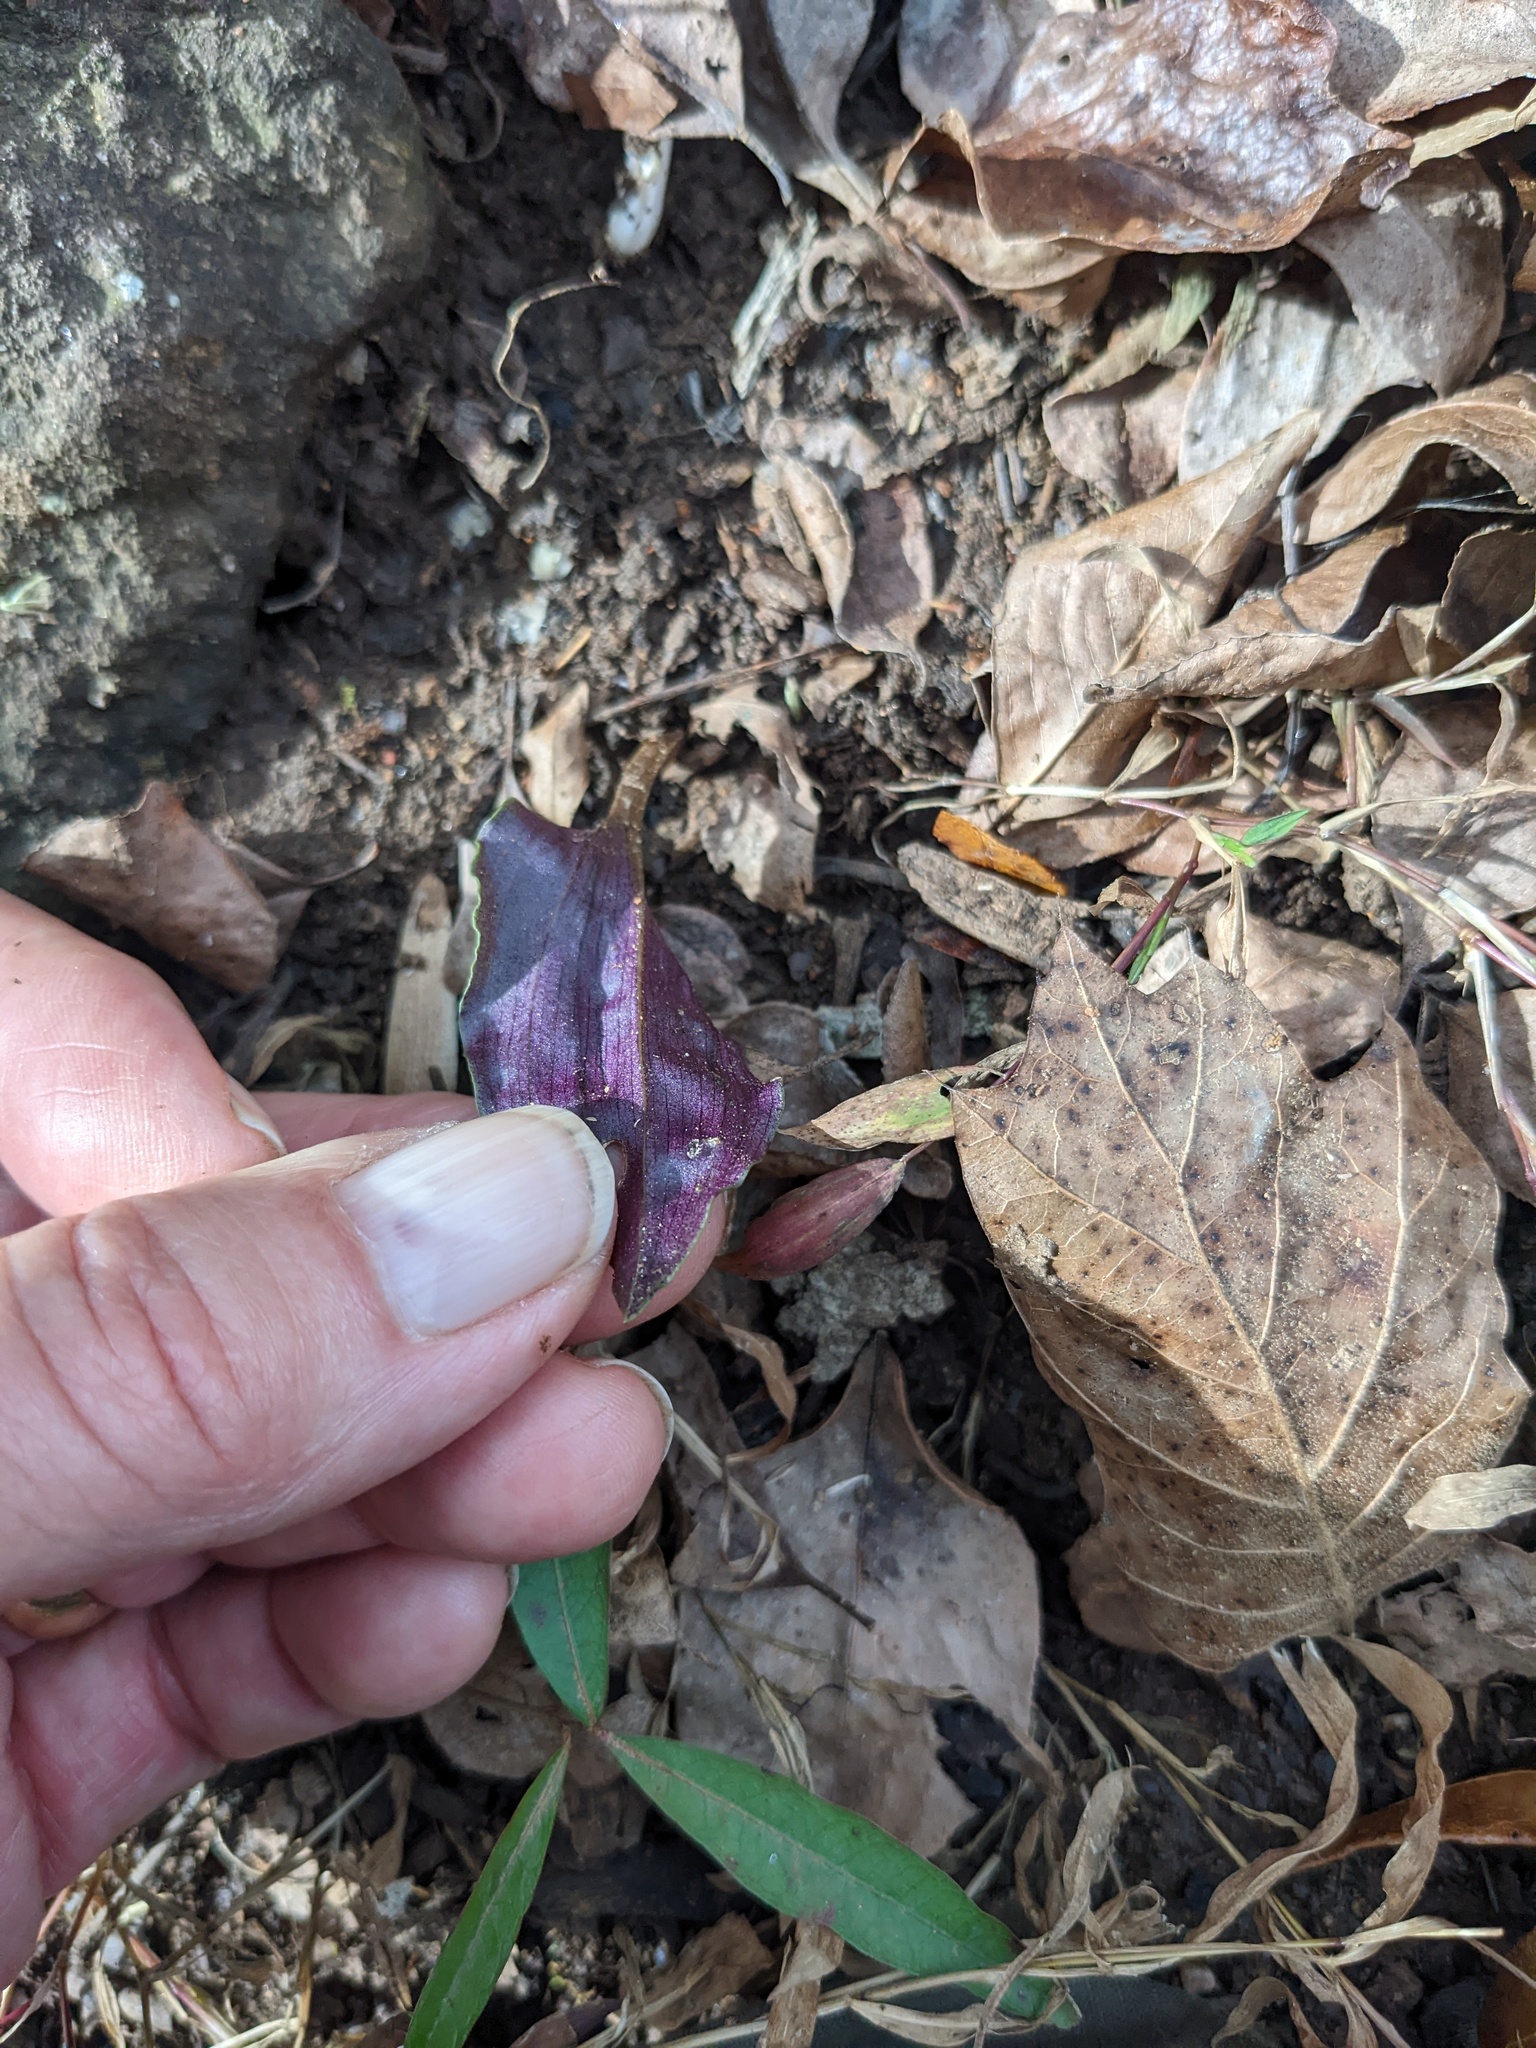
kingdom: Plantae
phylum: Tracheophyta
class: Liliopsida
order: Asparagales
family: Orchidaceae
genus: Tipularia
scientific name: Tipularia discolor
